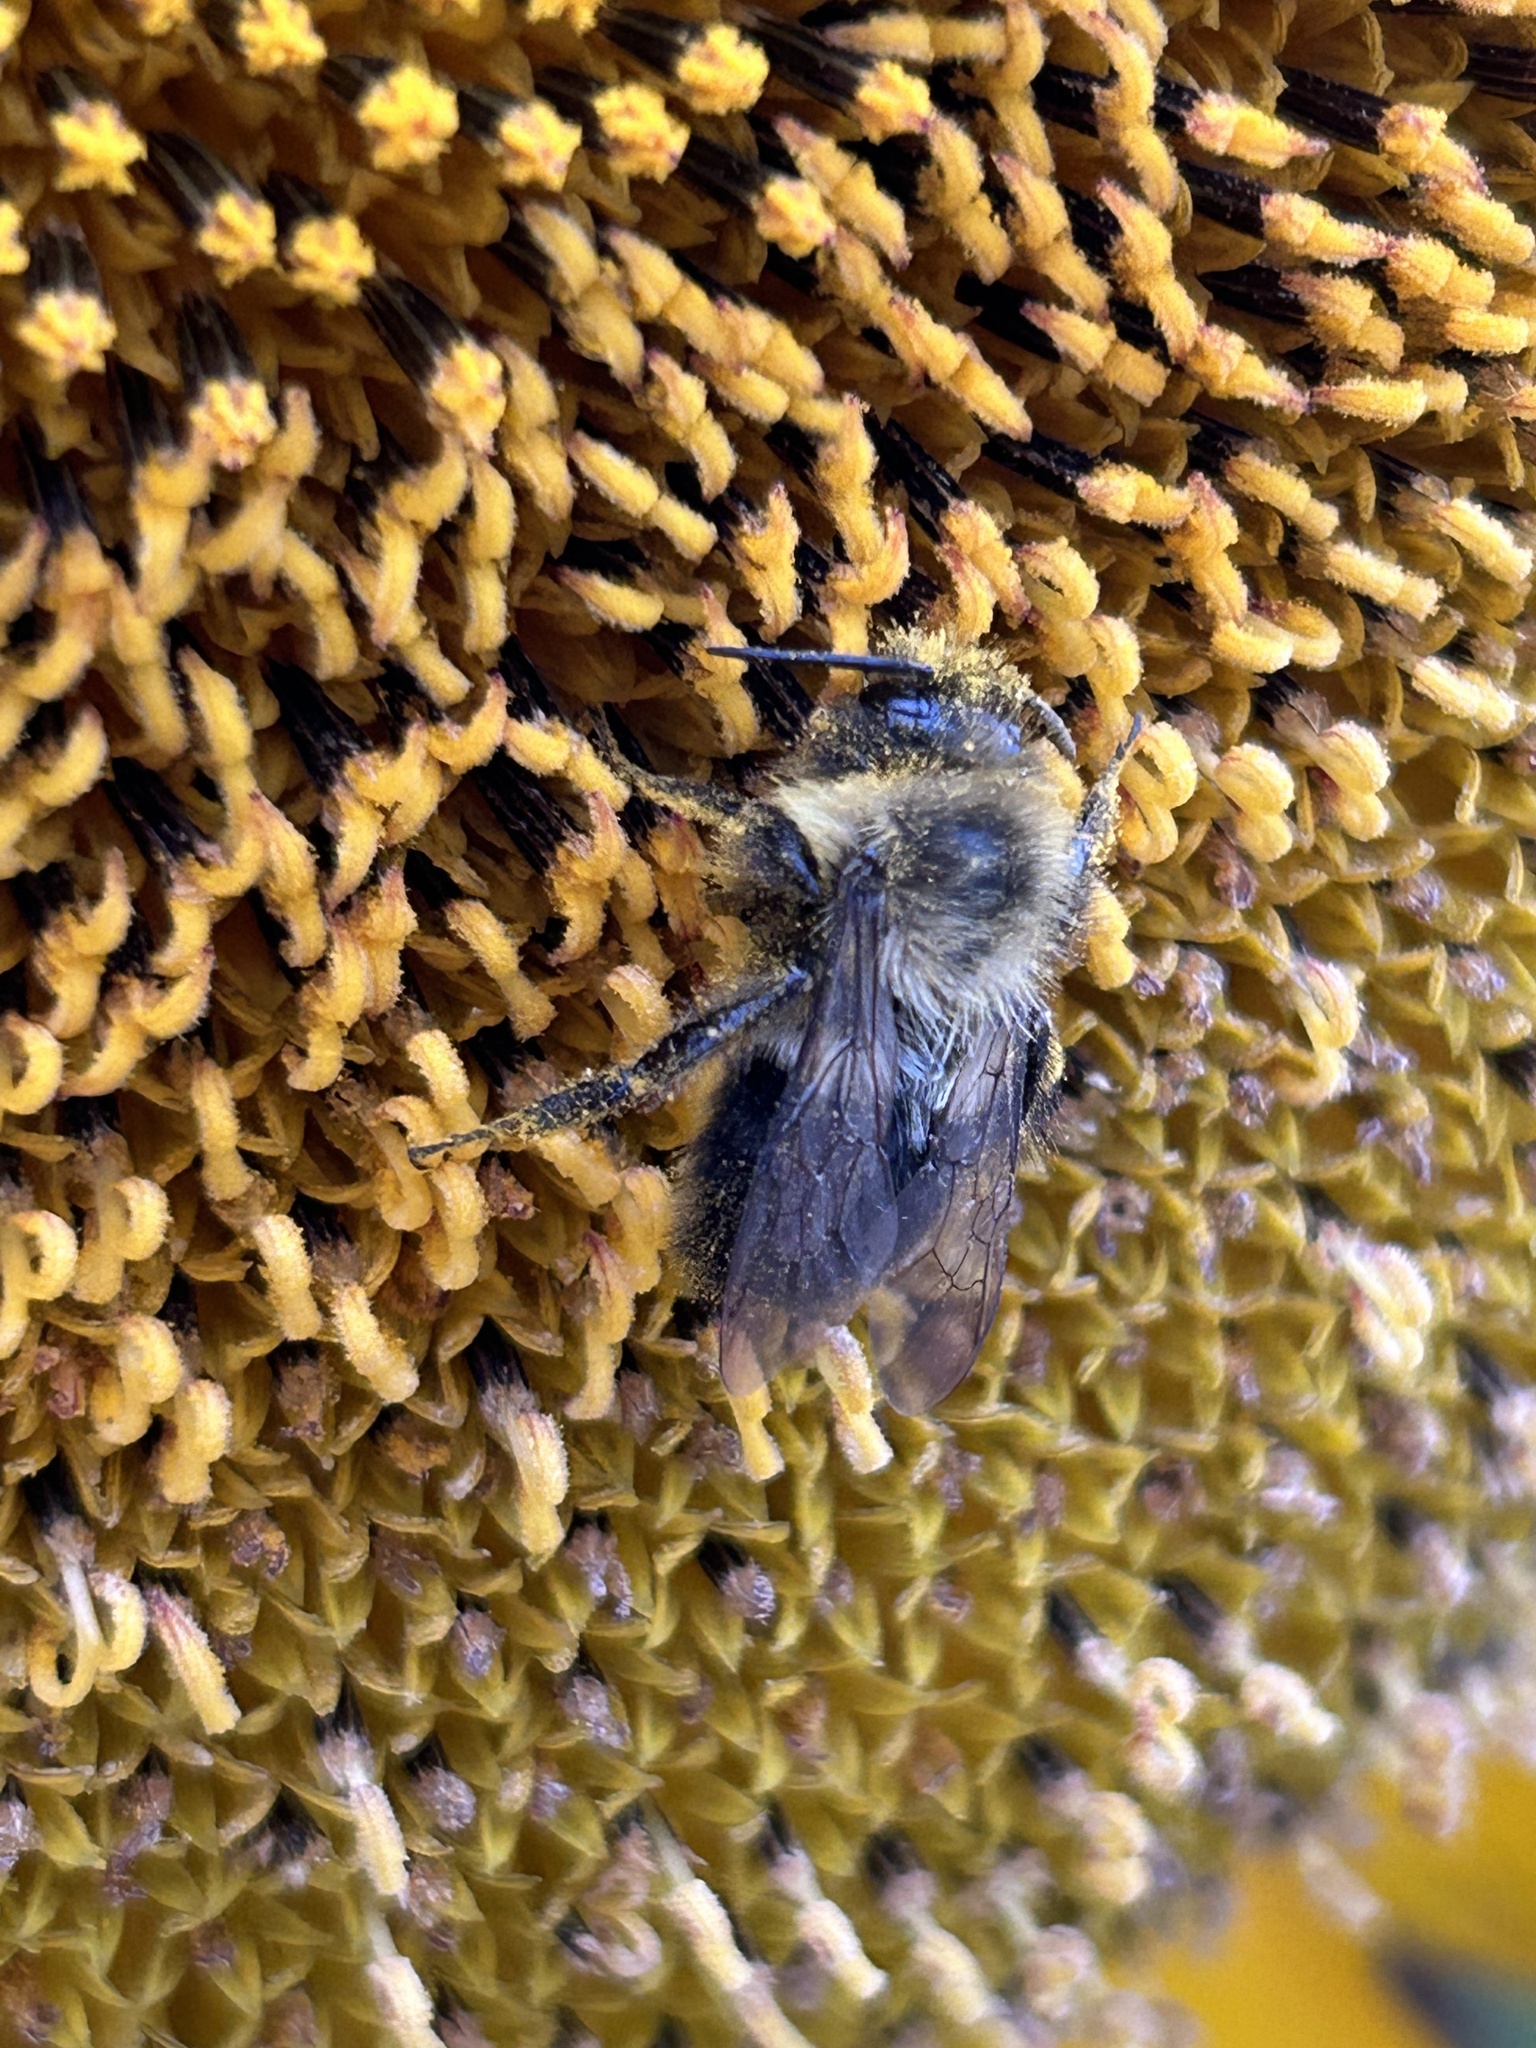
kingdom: Animalia
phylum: Arthropoda
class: Insecta
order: Hymenoptera
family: Apidae
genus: Bombus
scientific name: Bombus impatiens
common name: Common eastern bumble bee
